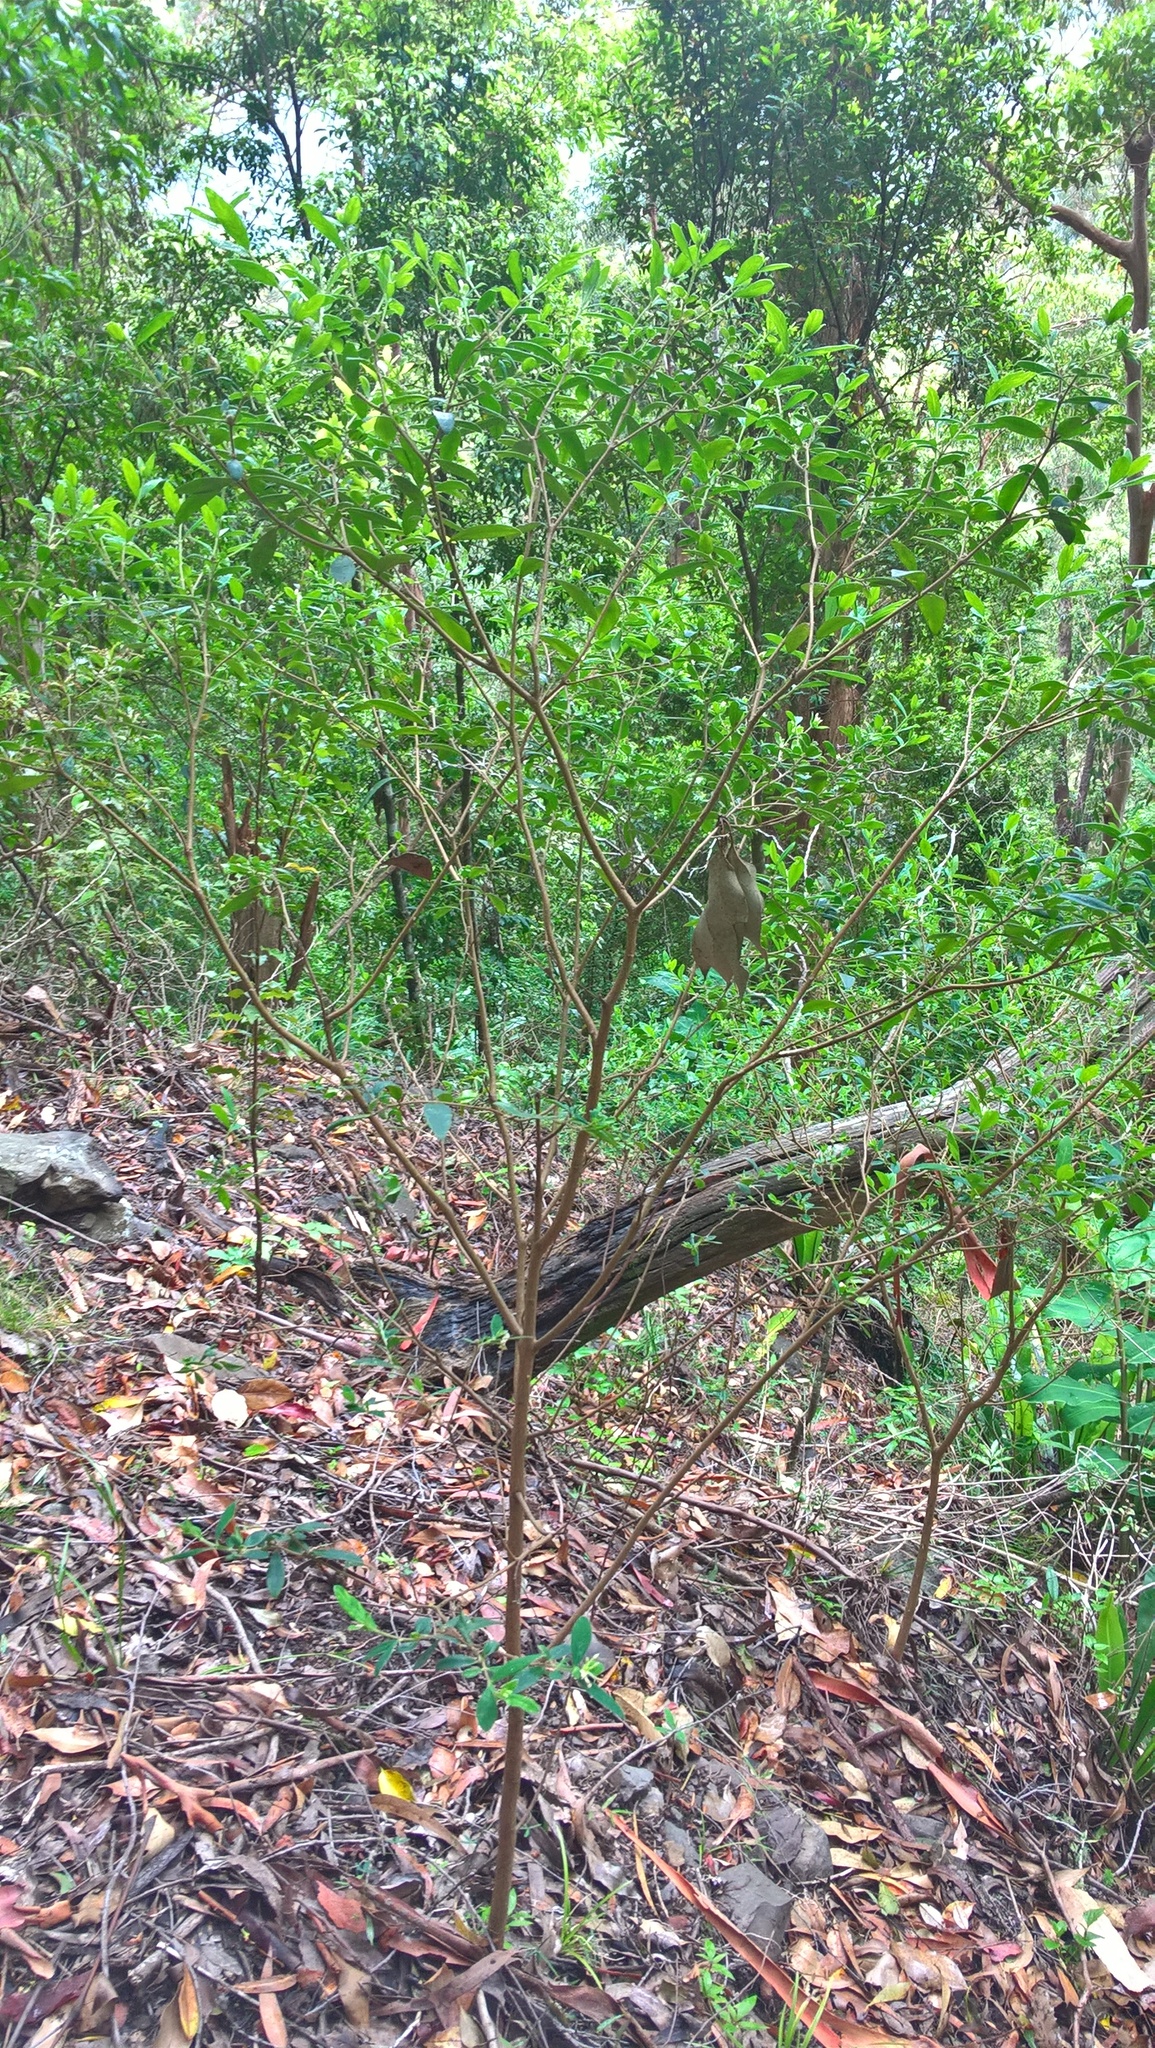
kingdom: Plantae
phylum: Tracheophyta
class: Magnoliopsida
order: Malvales
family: Thymelaeaceae
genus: Pimelea
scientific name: Pimelea gigandra
